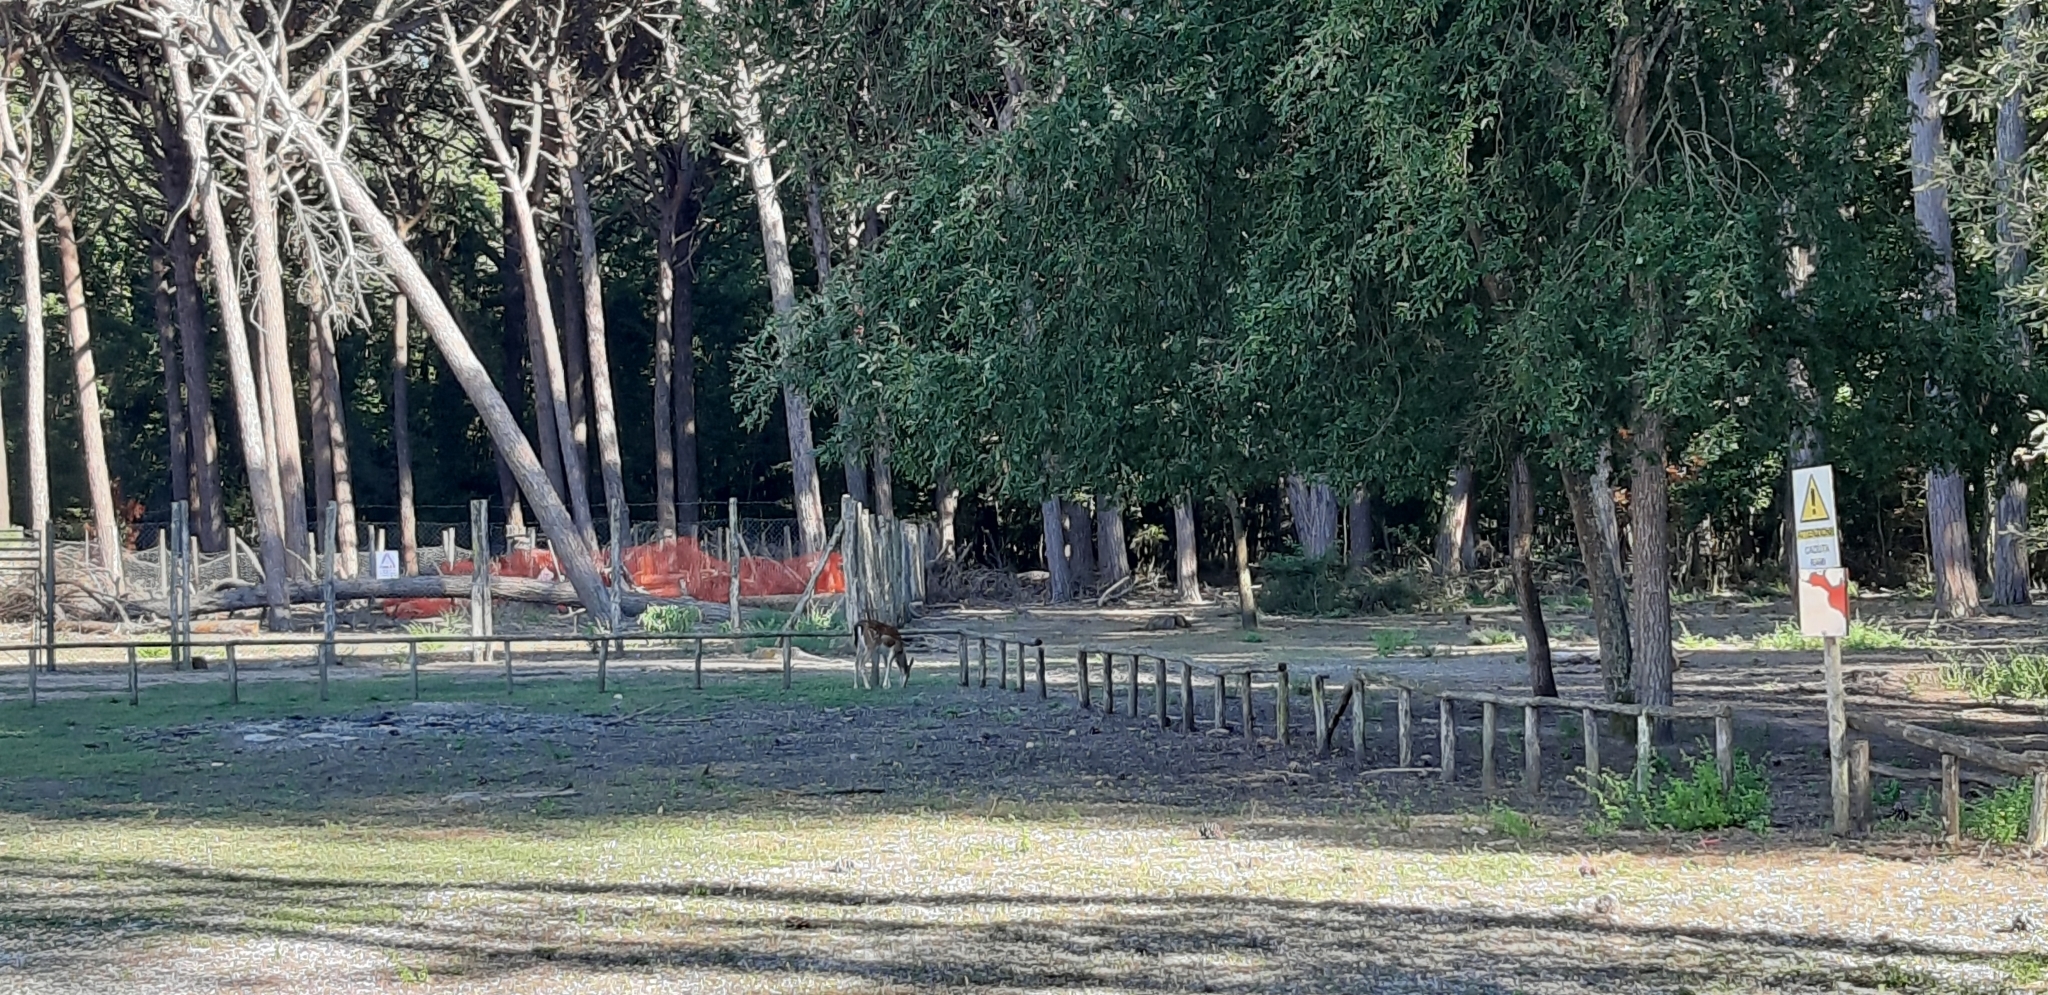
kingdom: Animalia
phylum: Chordata
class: Mammalia
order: Artiodactyla
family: Cervidae
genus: Dama
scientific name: Dama dama
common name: Fallow deer
